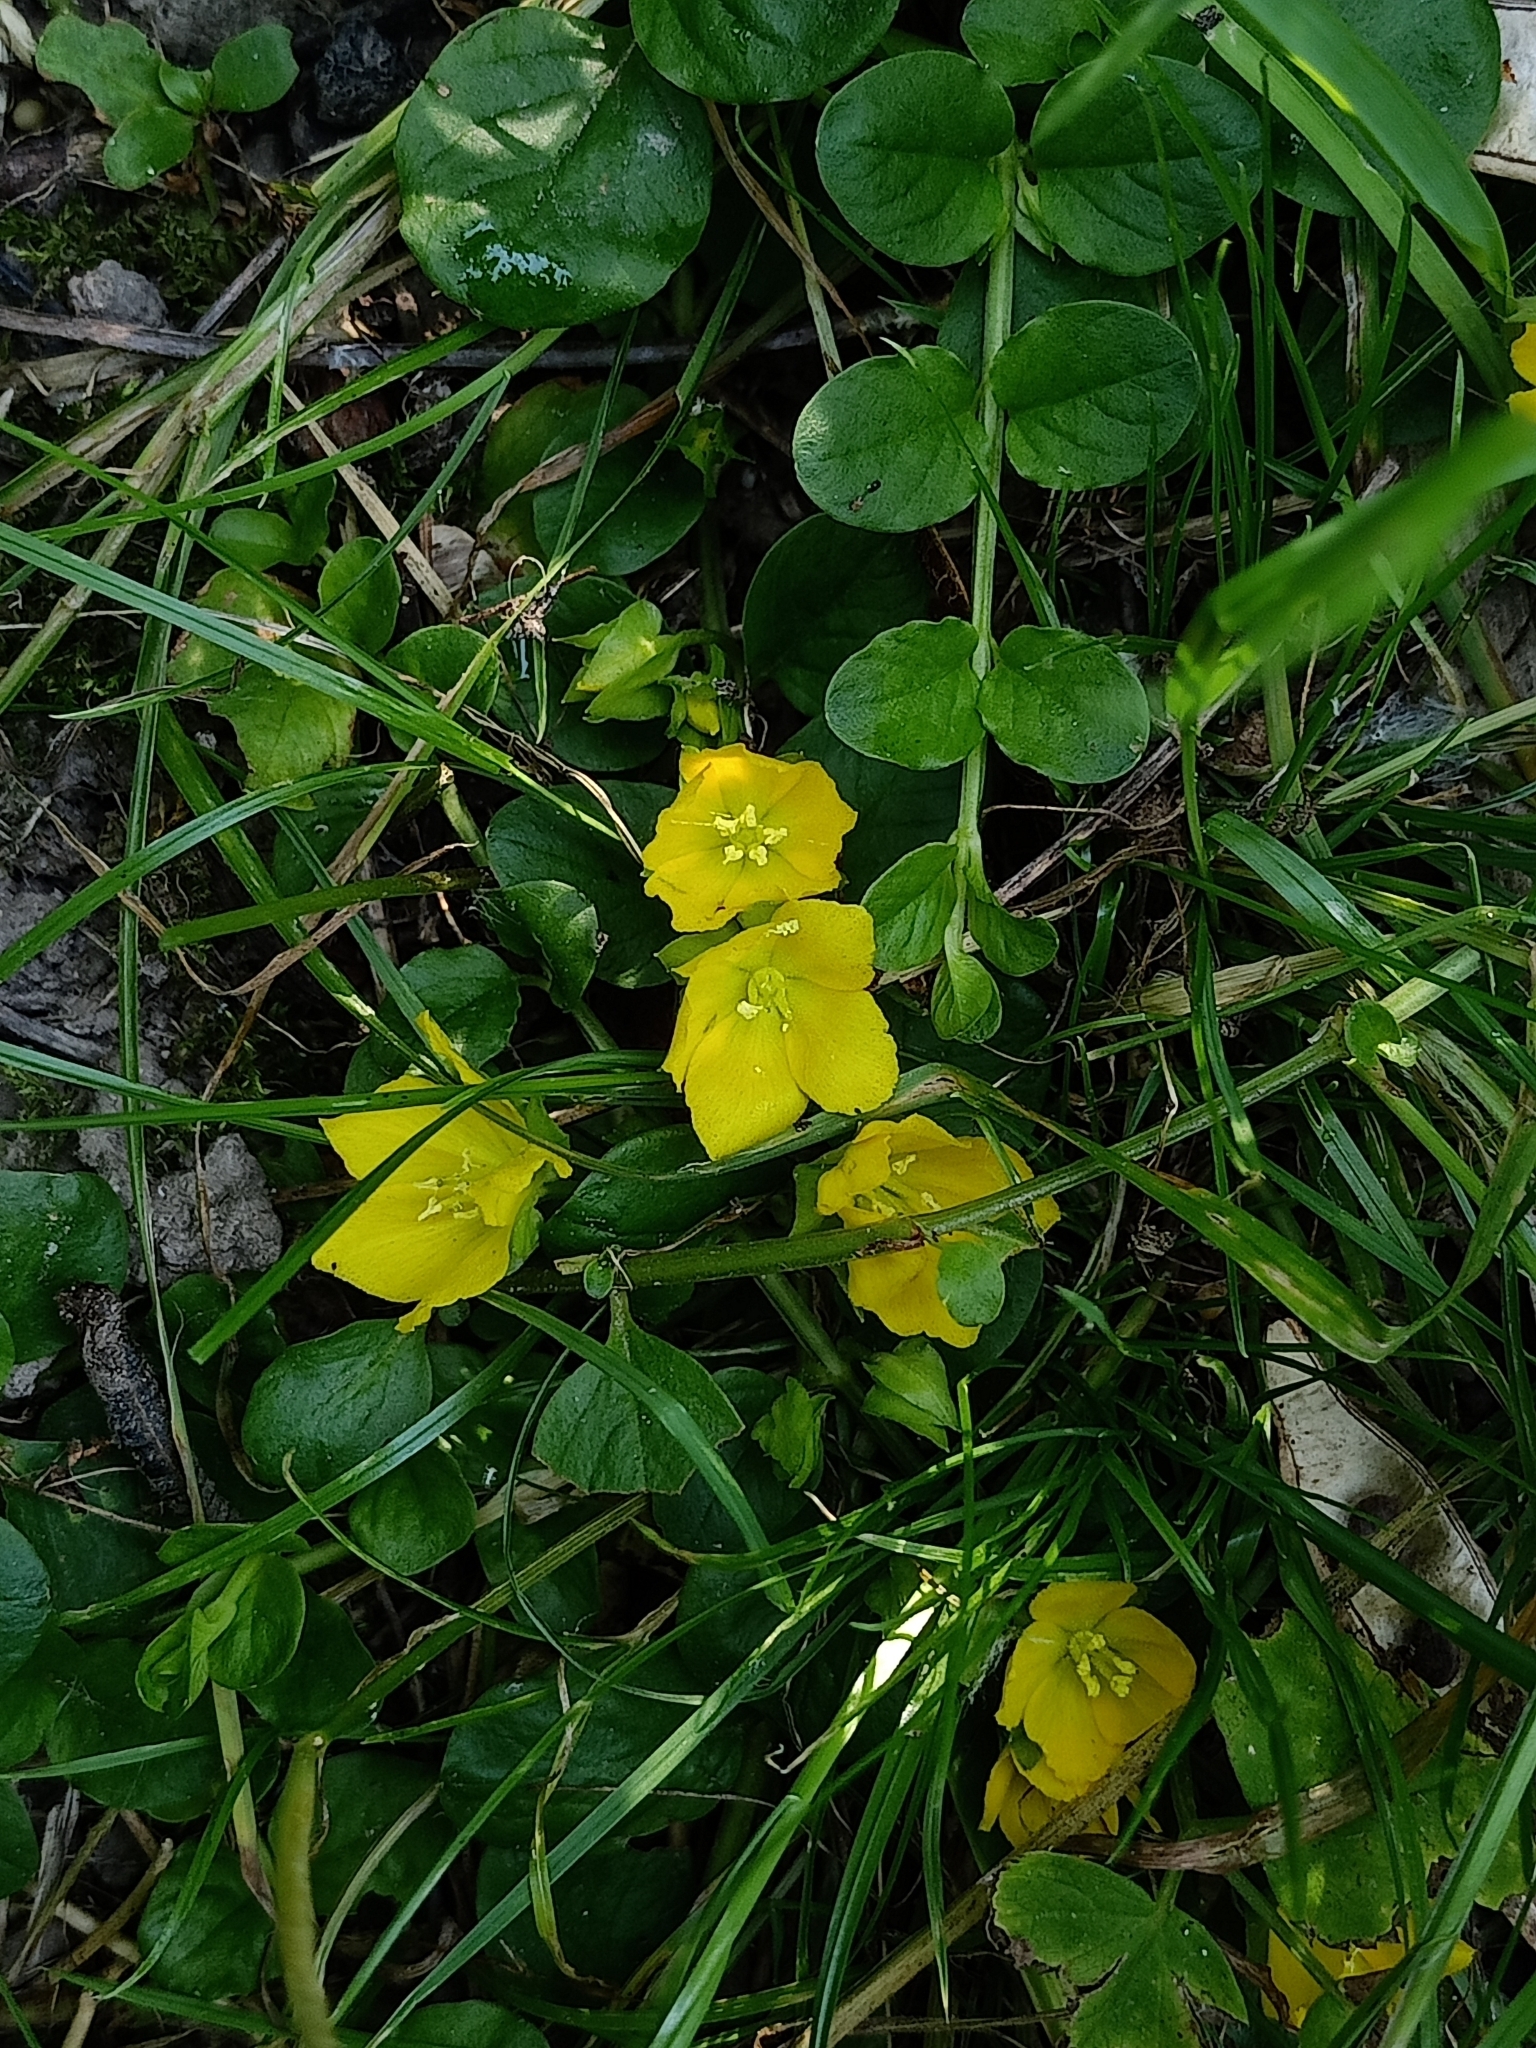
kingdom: Plantae
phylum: Tracheophyta
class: Magnoliopsida
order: Ericales
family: Primulaceae
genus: Lysimachia
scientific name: Lysimachia nummularia
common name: Moneywort
